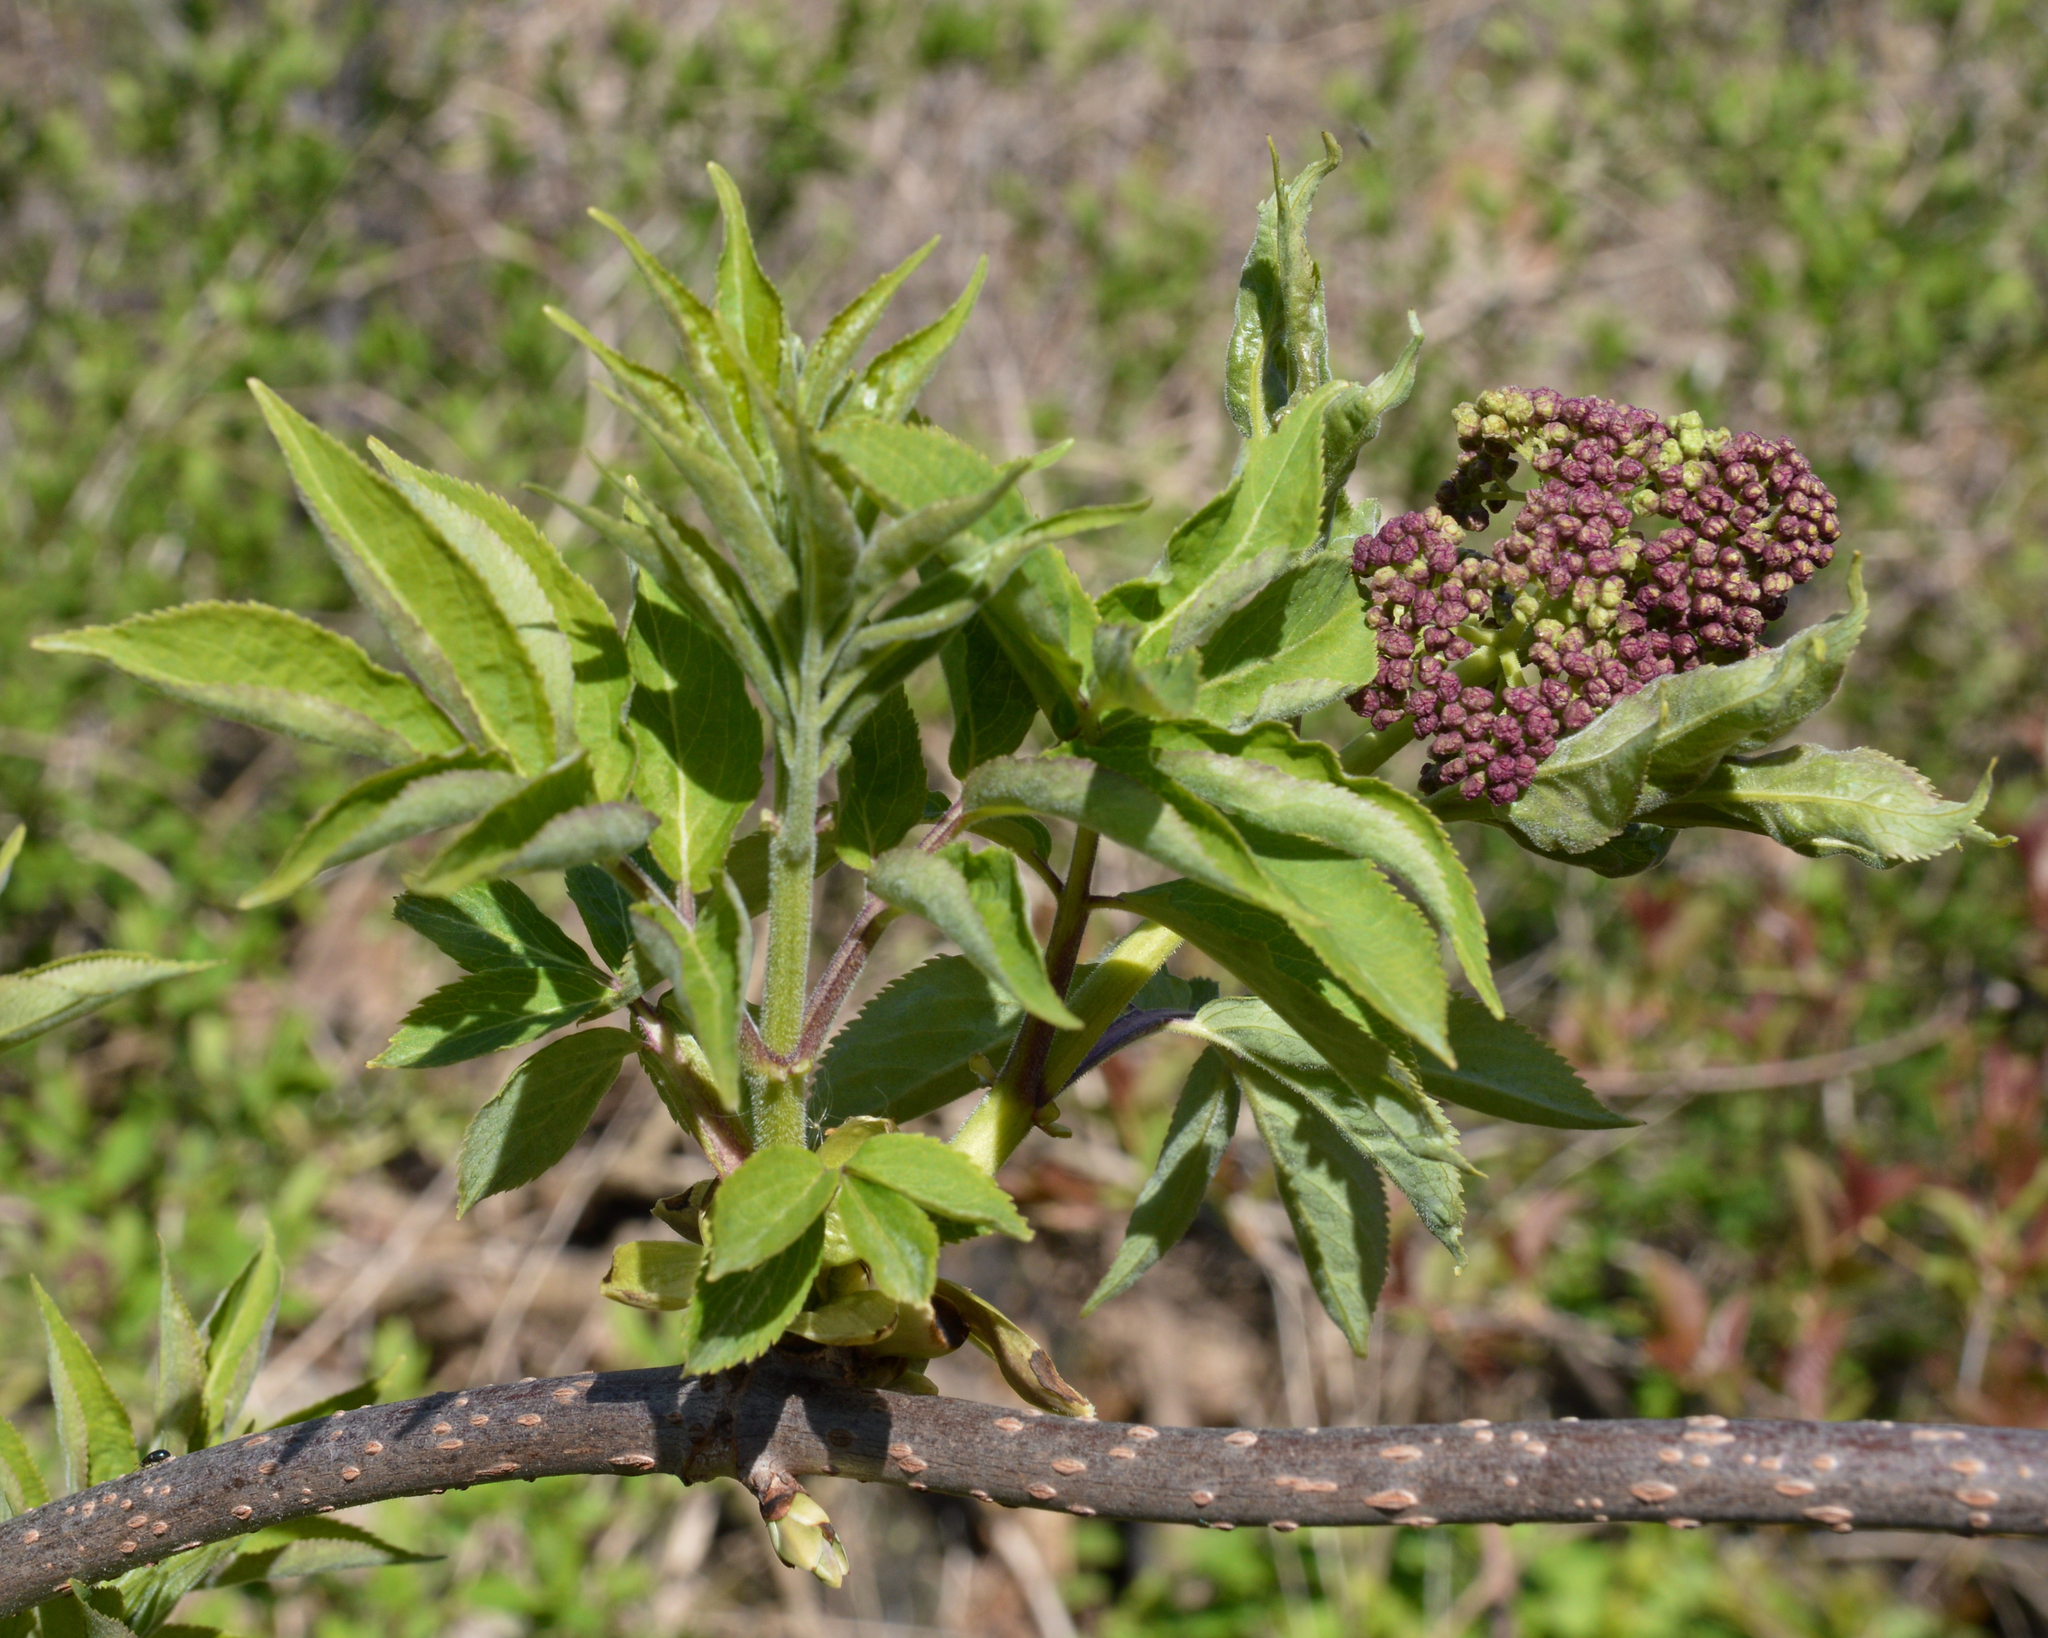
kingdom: Plantae
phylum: Tracheophyta
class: Magnoliopsida
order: Dipsacales
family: Viburnaceae
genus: Sambucus
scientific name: Sambucus racemosa
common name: Red-berried elder
